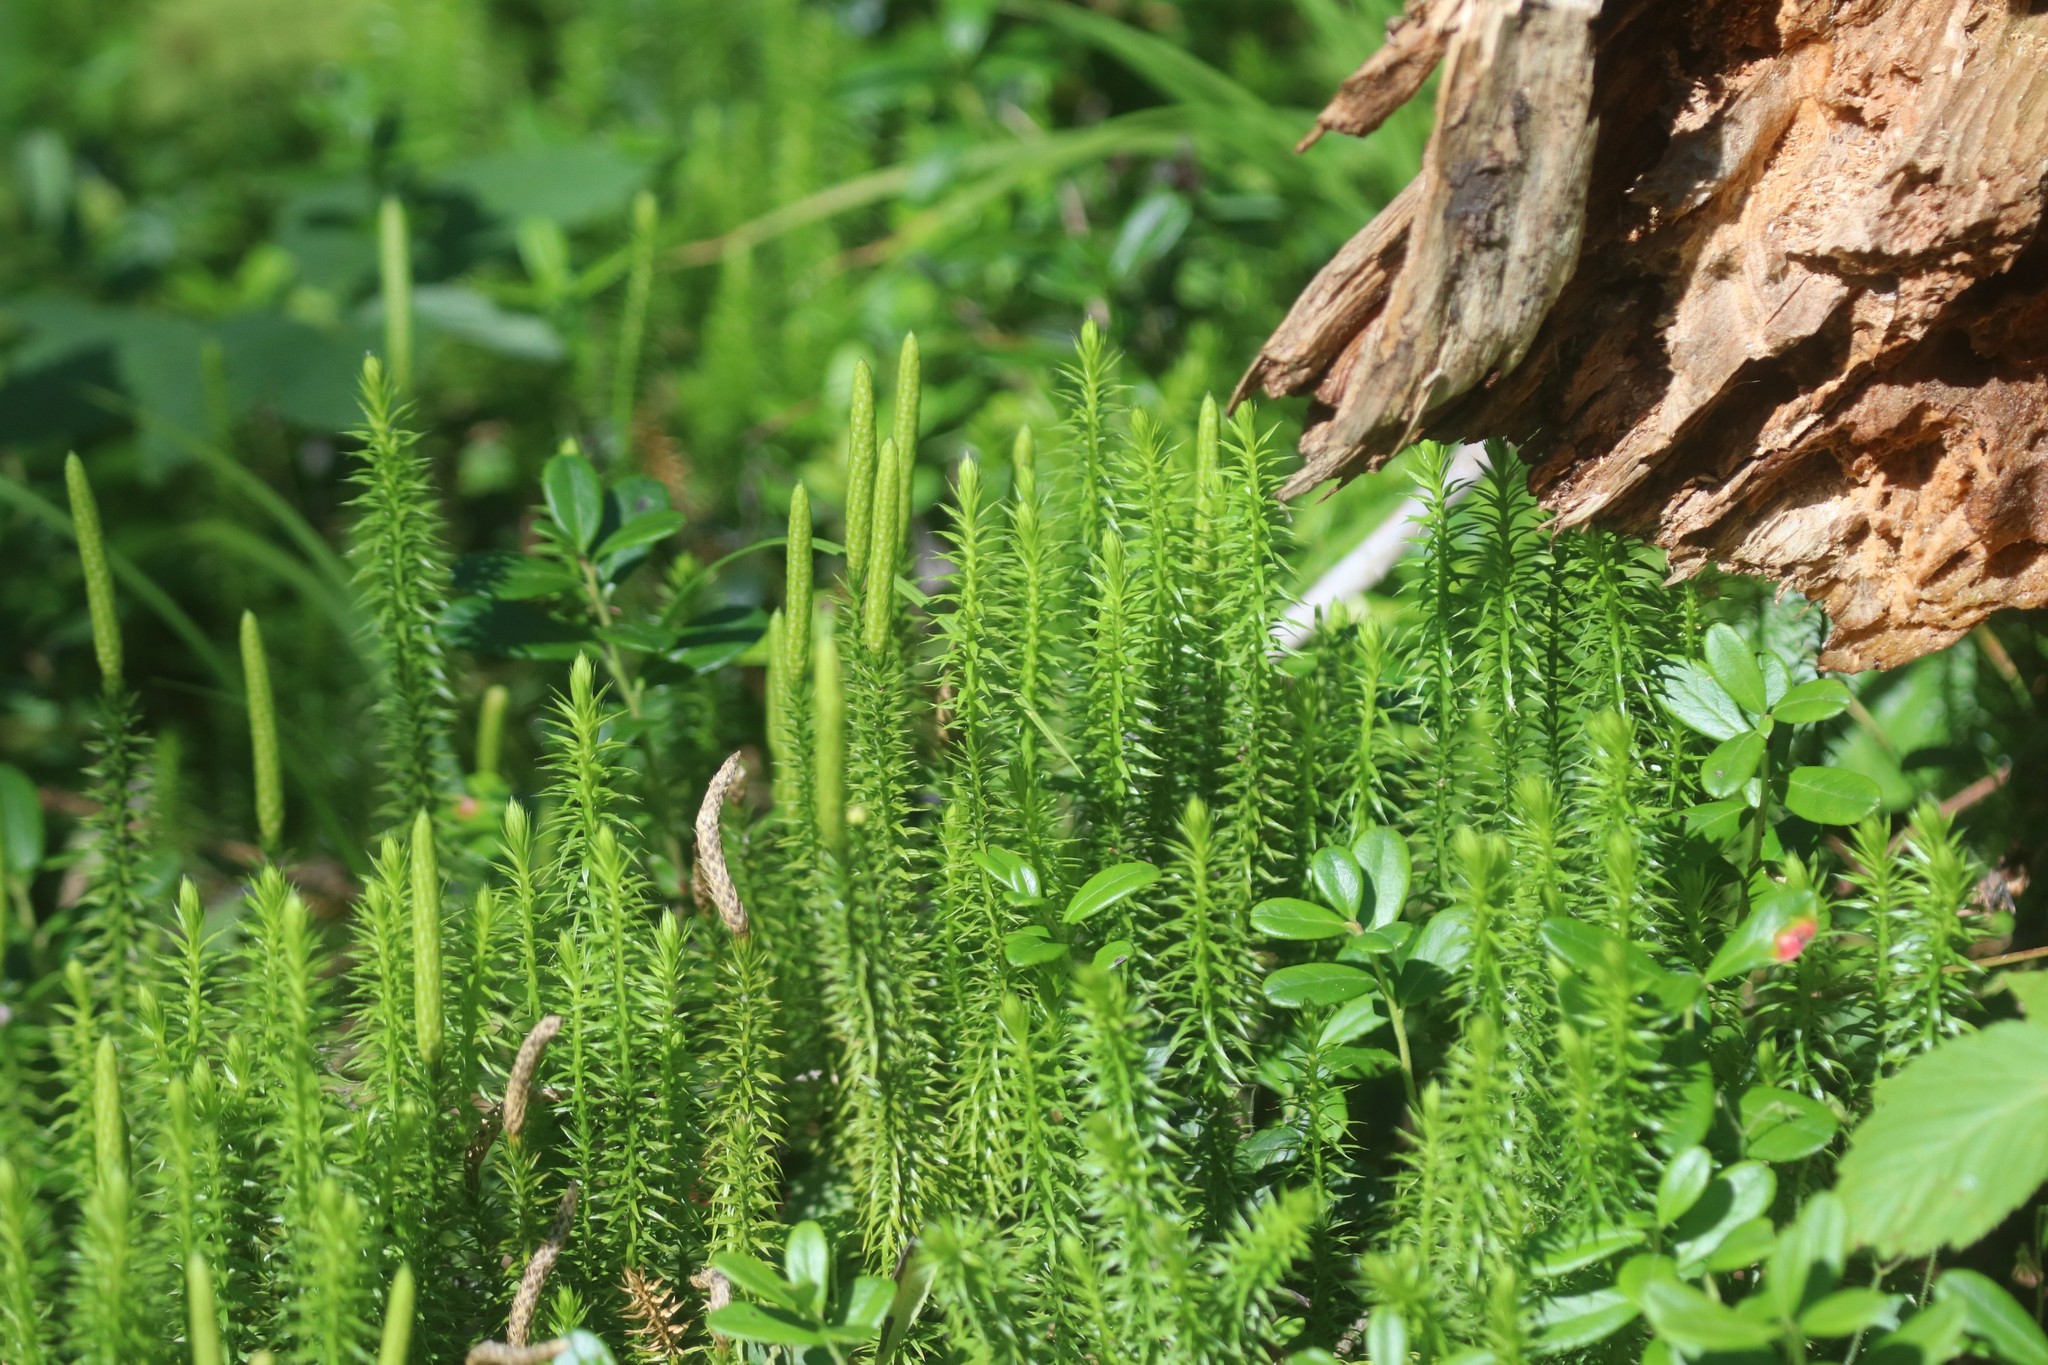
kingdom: Plantae
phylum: Tracheophyta
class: Lycopodiopsida
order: Lycopodiales
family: Lycopodiaceae
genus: Spinulum
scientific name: Spinulum annotinum
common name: Interrupted club-moss
